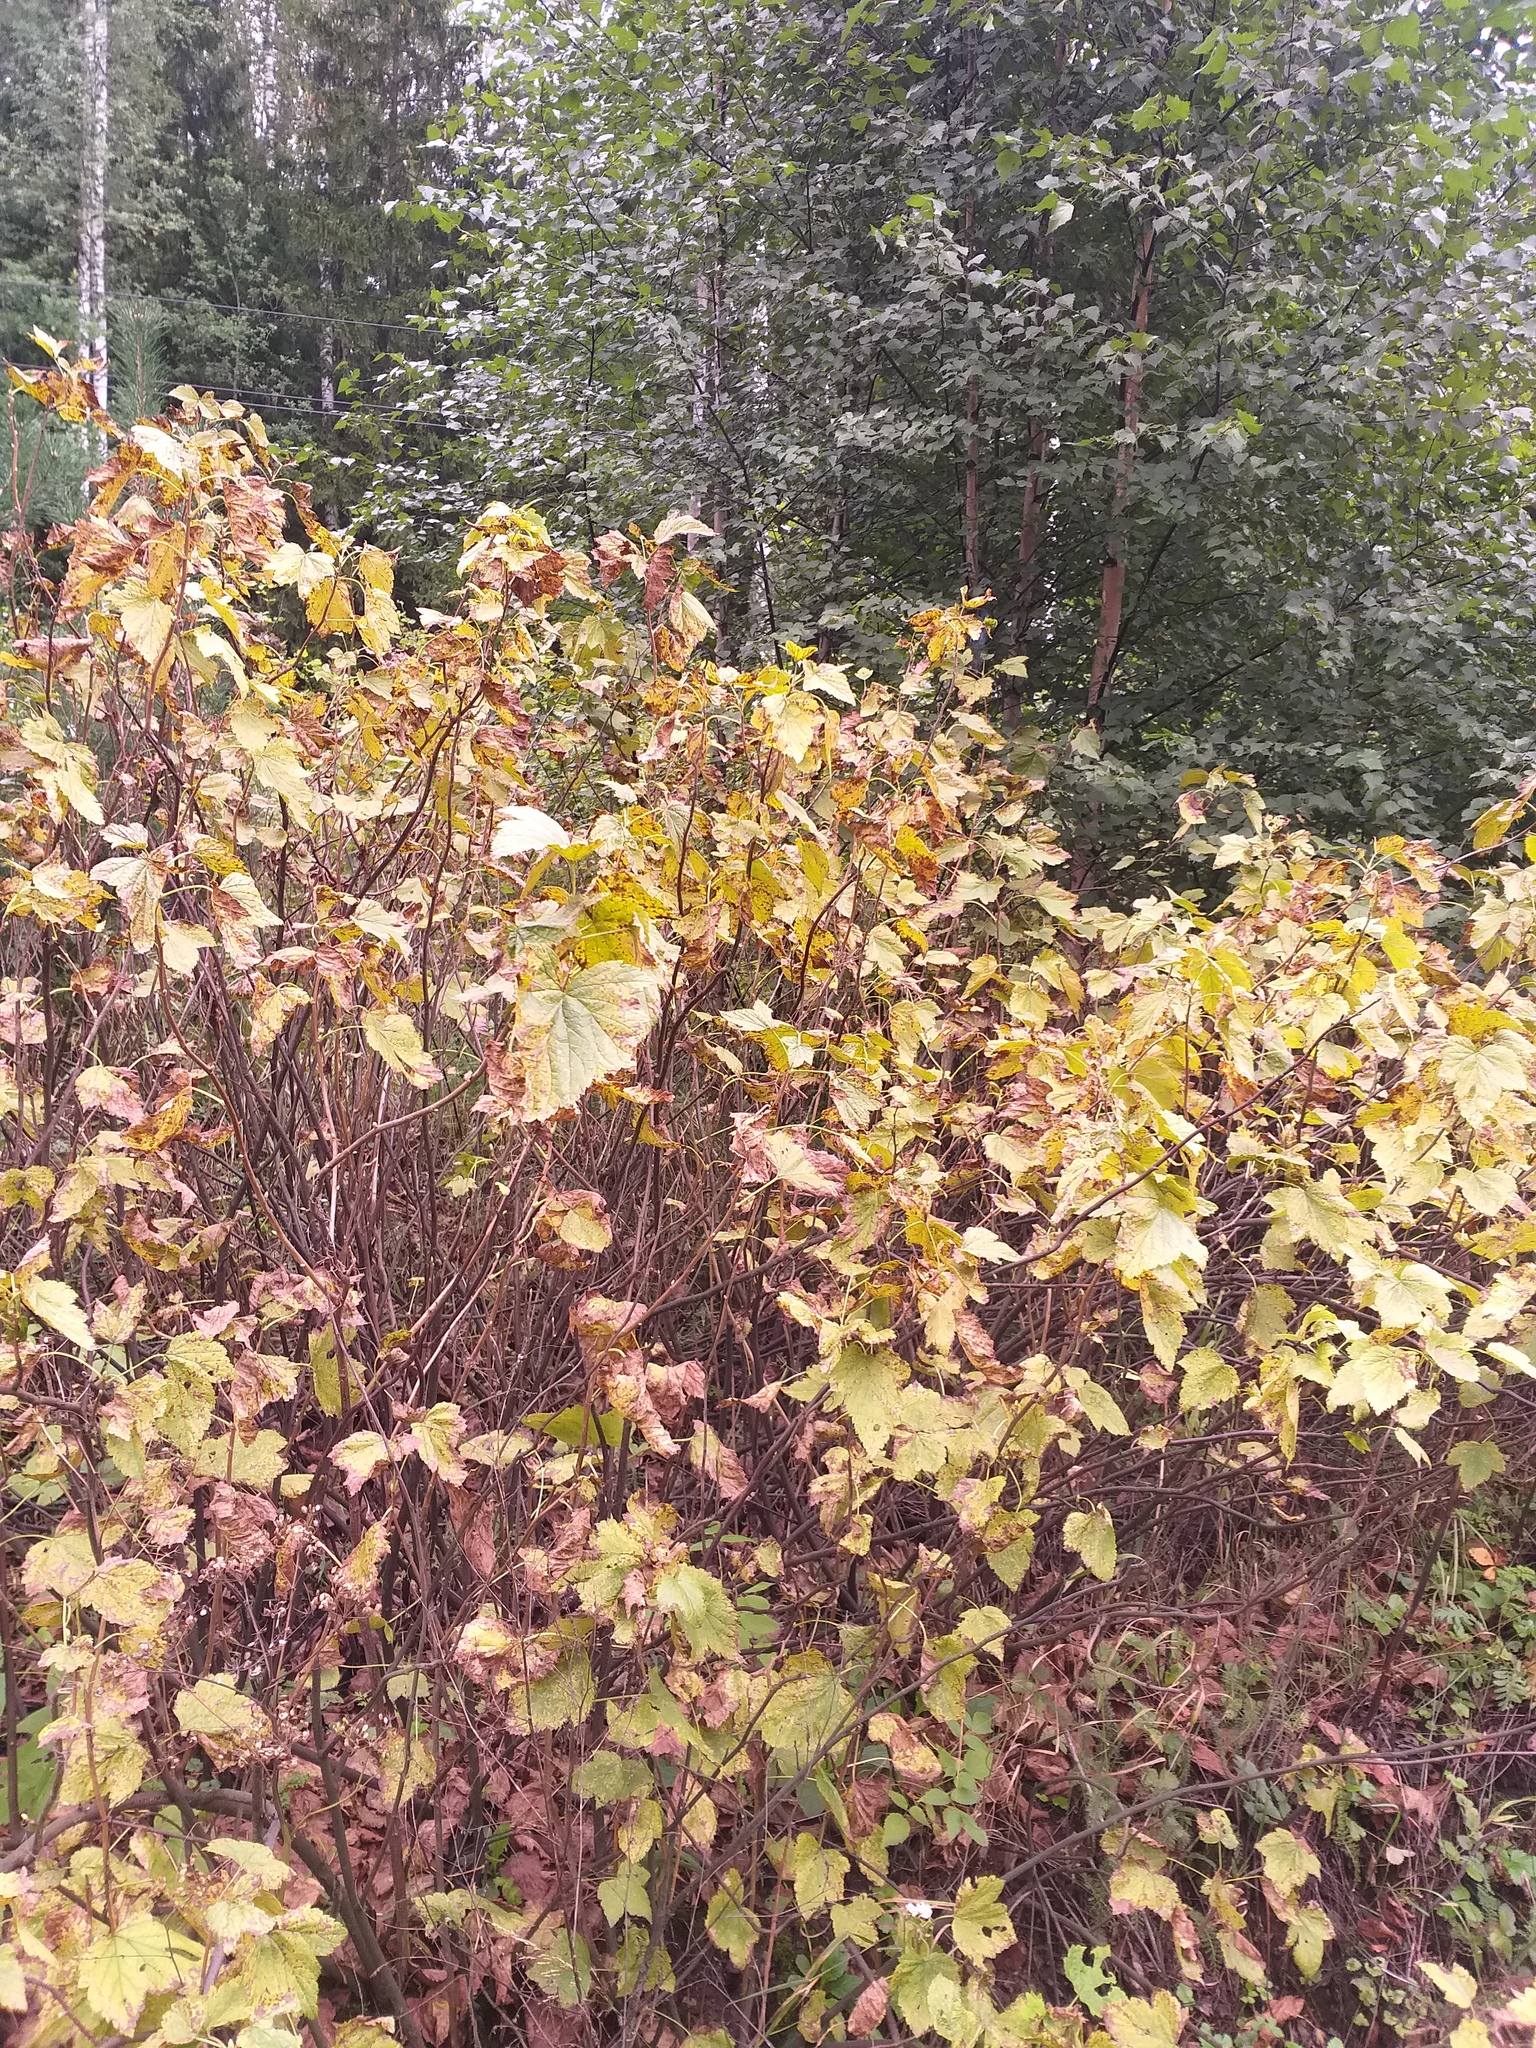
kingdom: Plantae
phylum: Tracheophyta
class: Magnoliopsida
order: Saxifragales
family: Grossulariaceae
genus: Ribes
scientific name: Ribes nigrum
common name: Black currant
